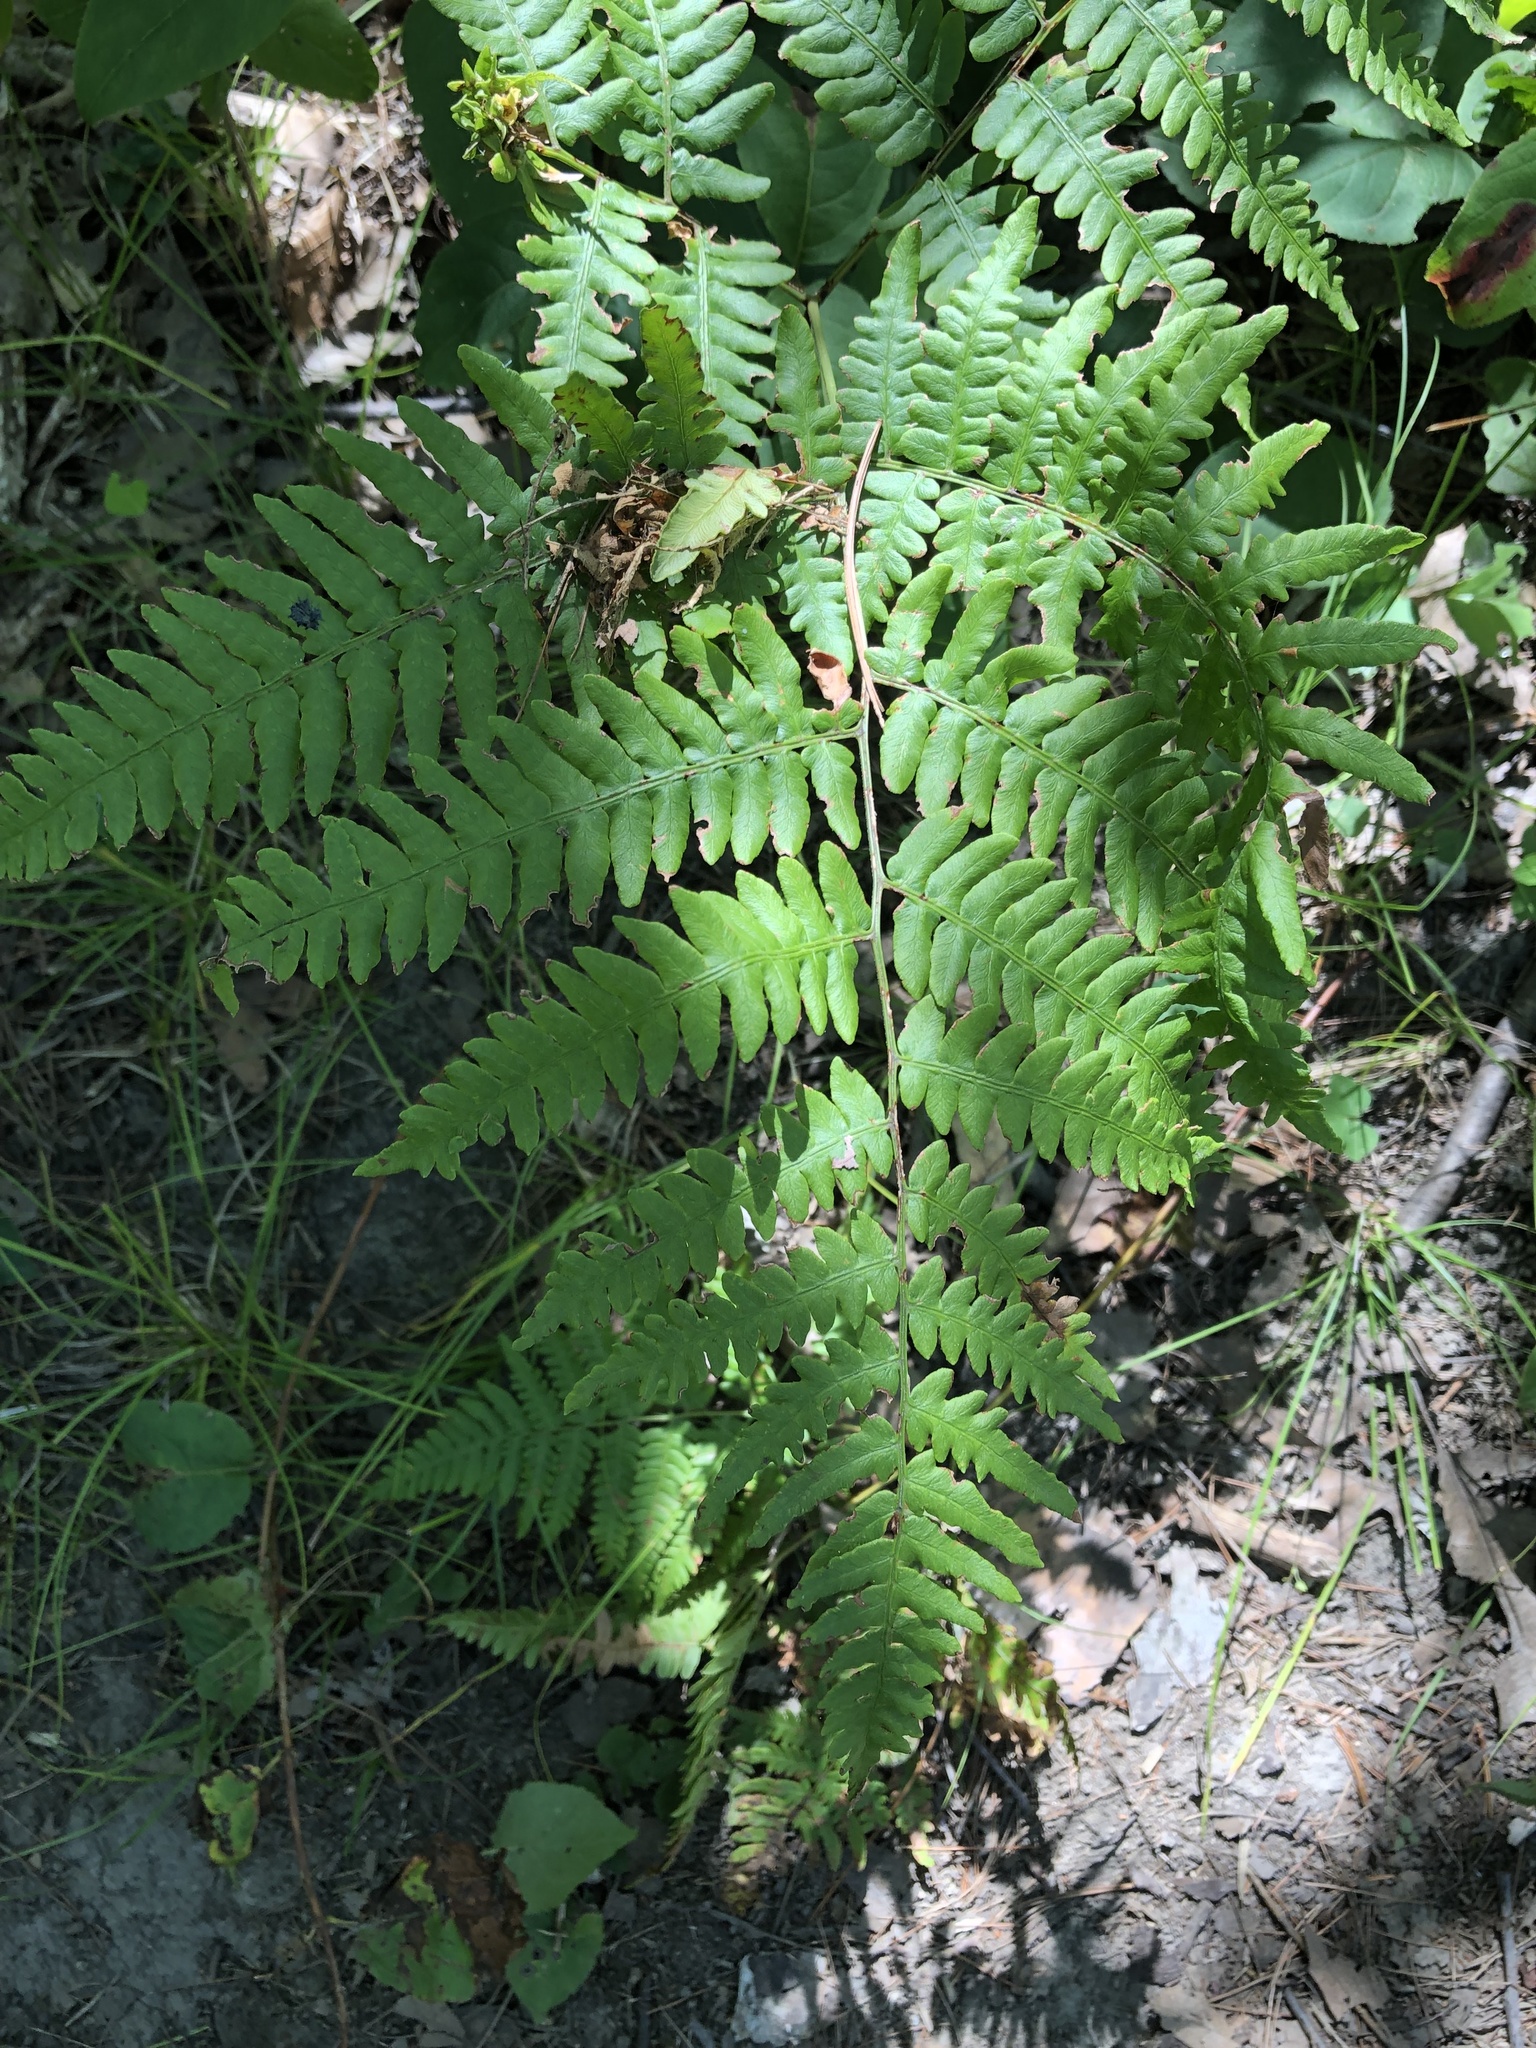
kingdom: Plantae
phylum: Tracheophyta
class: Polypodiopsida
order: Polypodiales
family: Dennstaedtiaceae
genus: Pteridium
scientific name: Pteridium aquilinum
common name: Bracken
